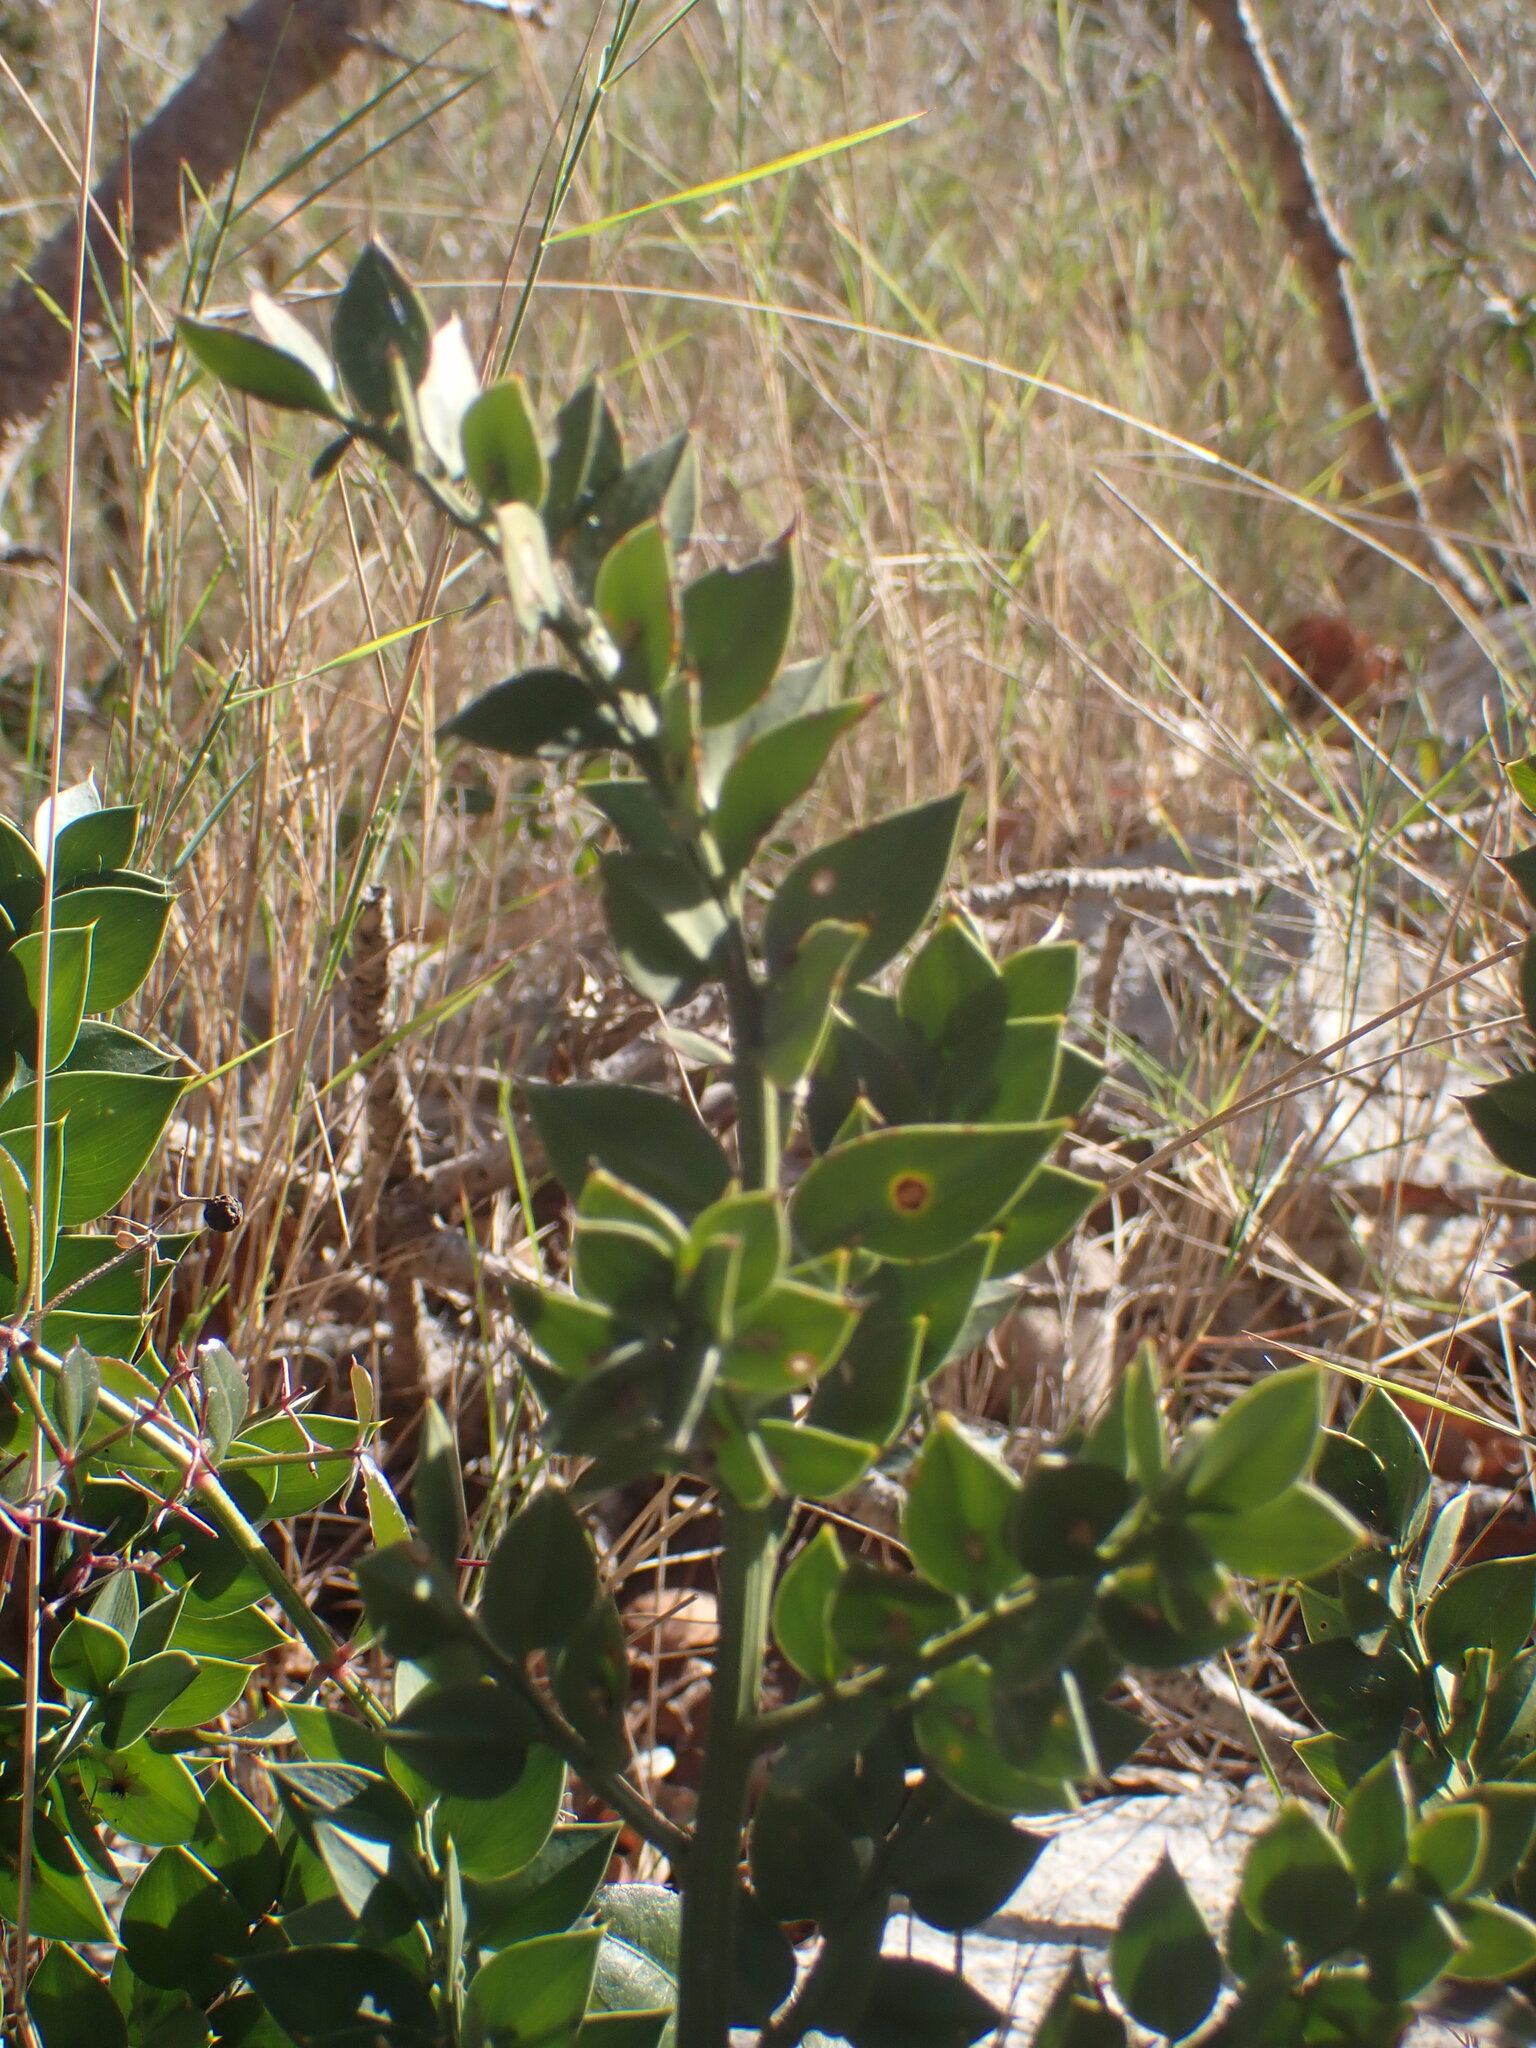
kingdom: Plantae
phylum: Tracheophyta
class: Liliopsida
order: Asparagales
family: Asparagaceae
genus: Ruscus
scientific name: Ruscus aculeatus
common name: Butcher's-broom
